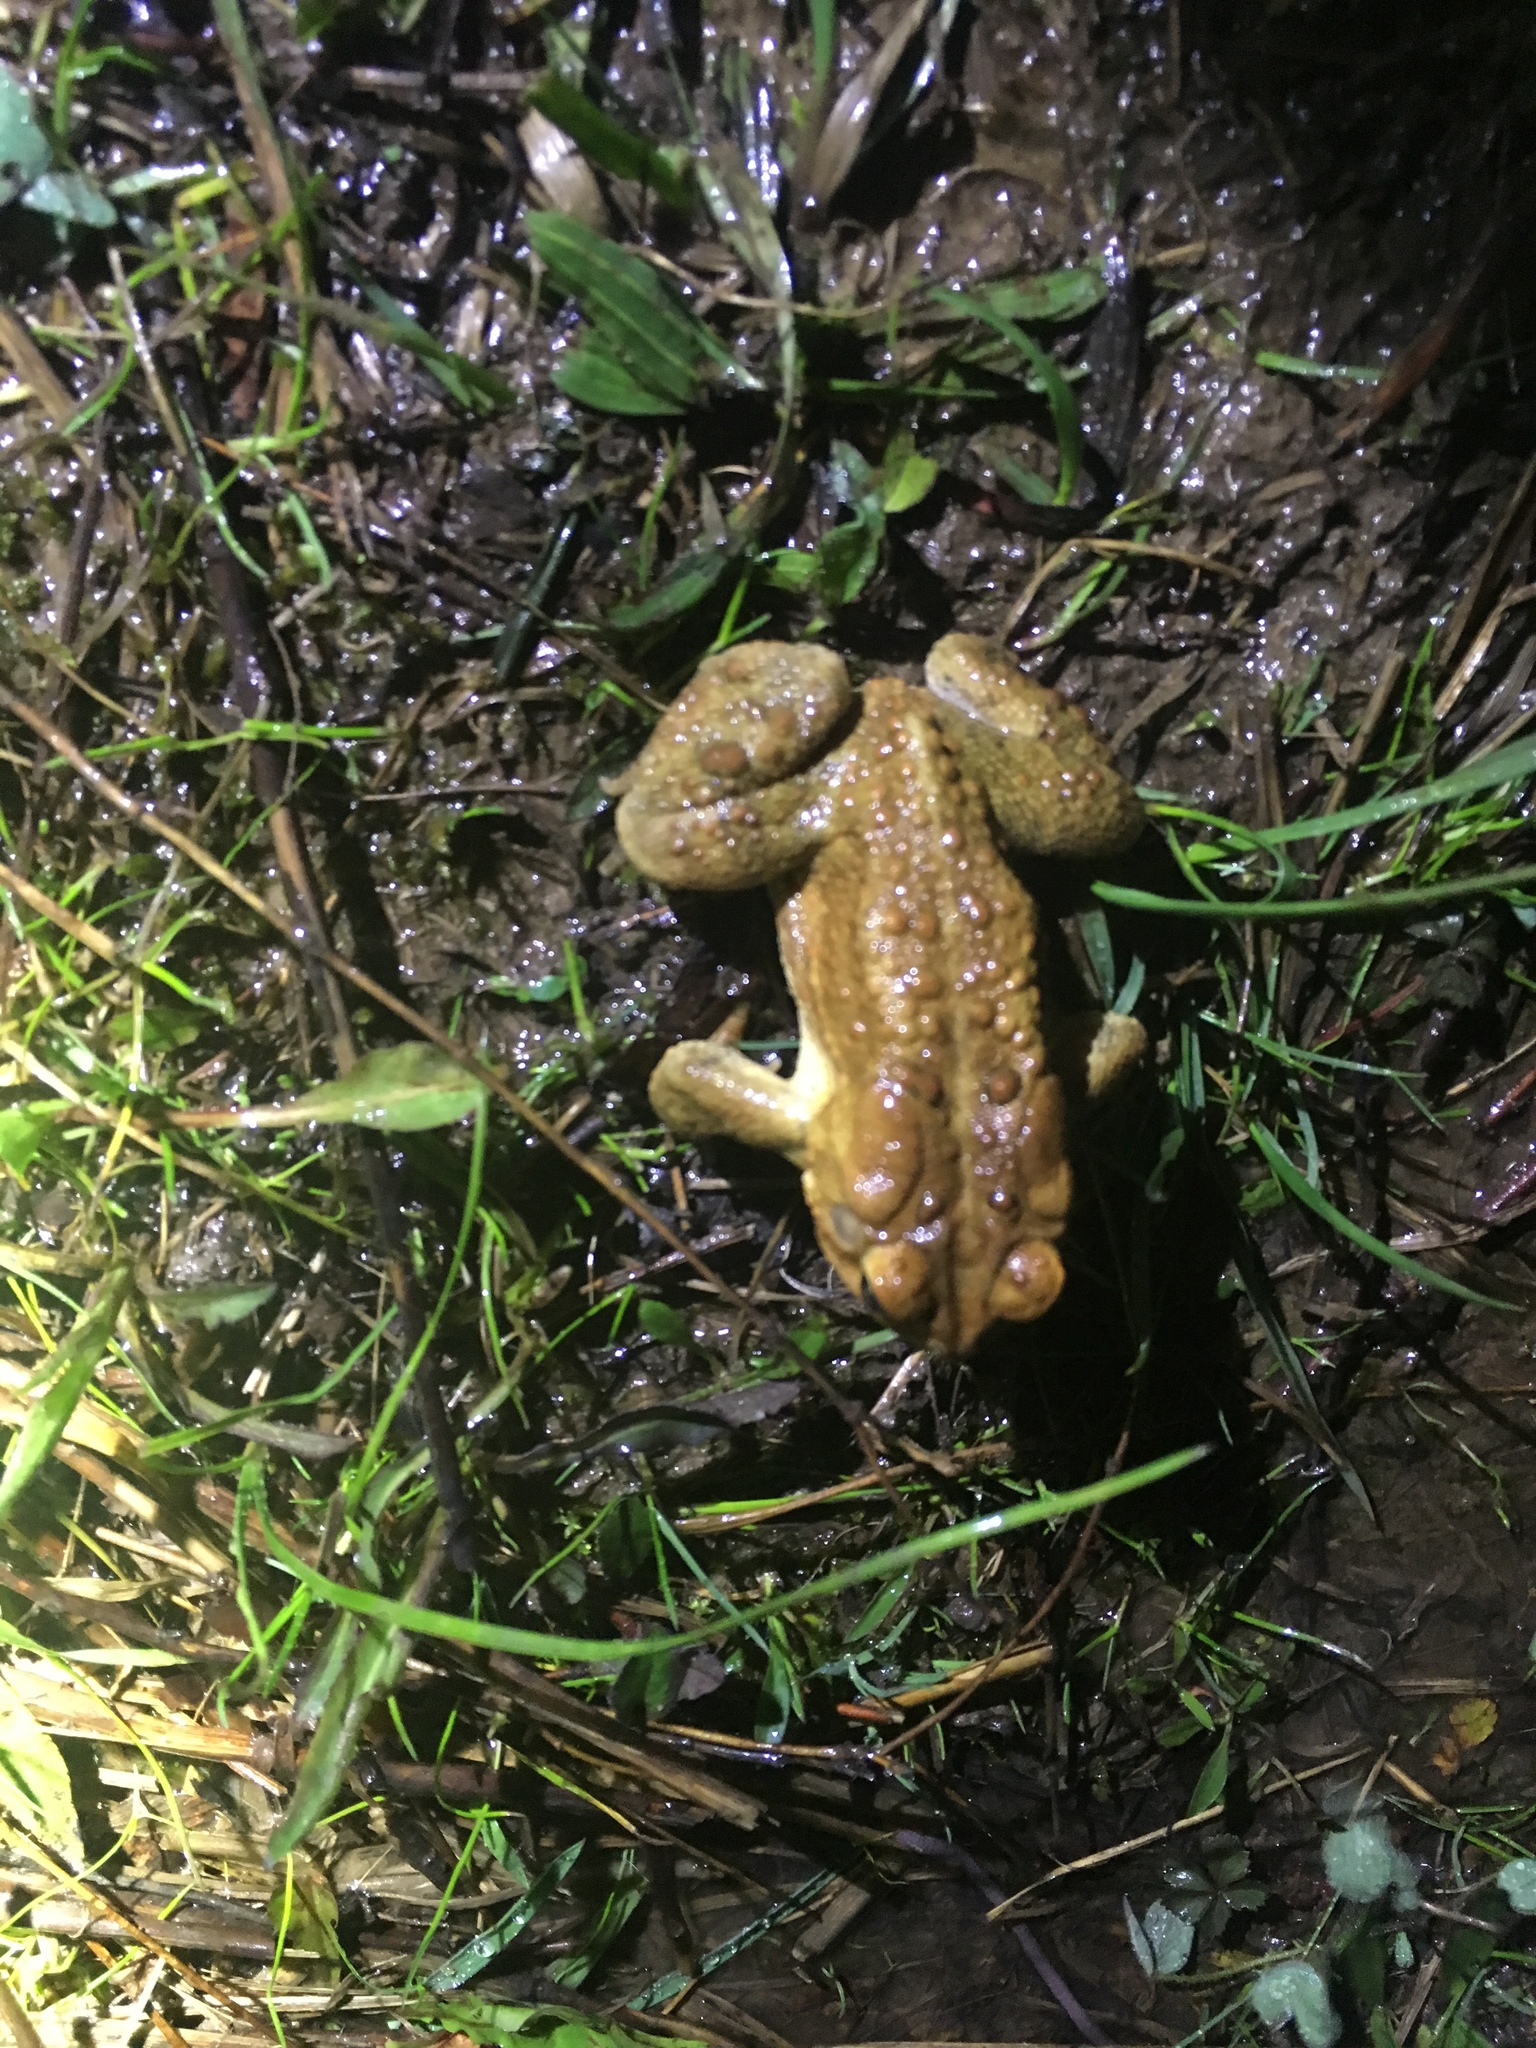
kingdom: Animalia
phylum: Chordata
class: Amphibia
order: Anura
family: Bufonidae
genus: Anaxyrus
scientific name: Anaxyrus americanus
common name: American toad
